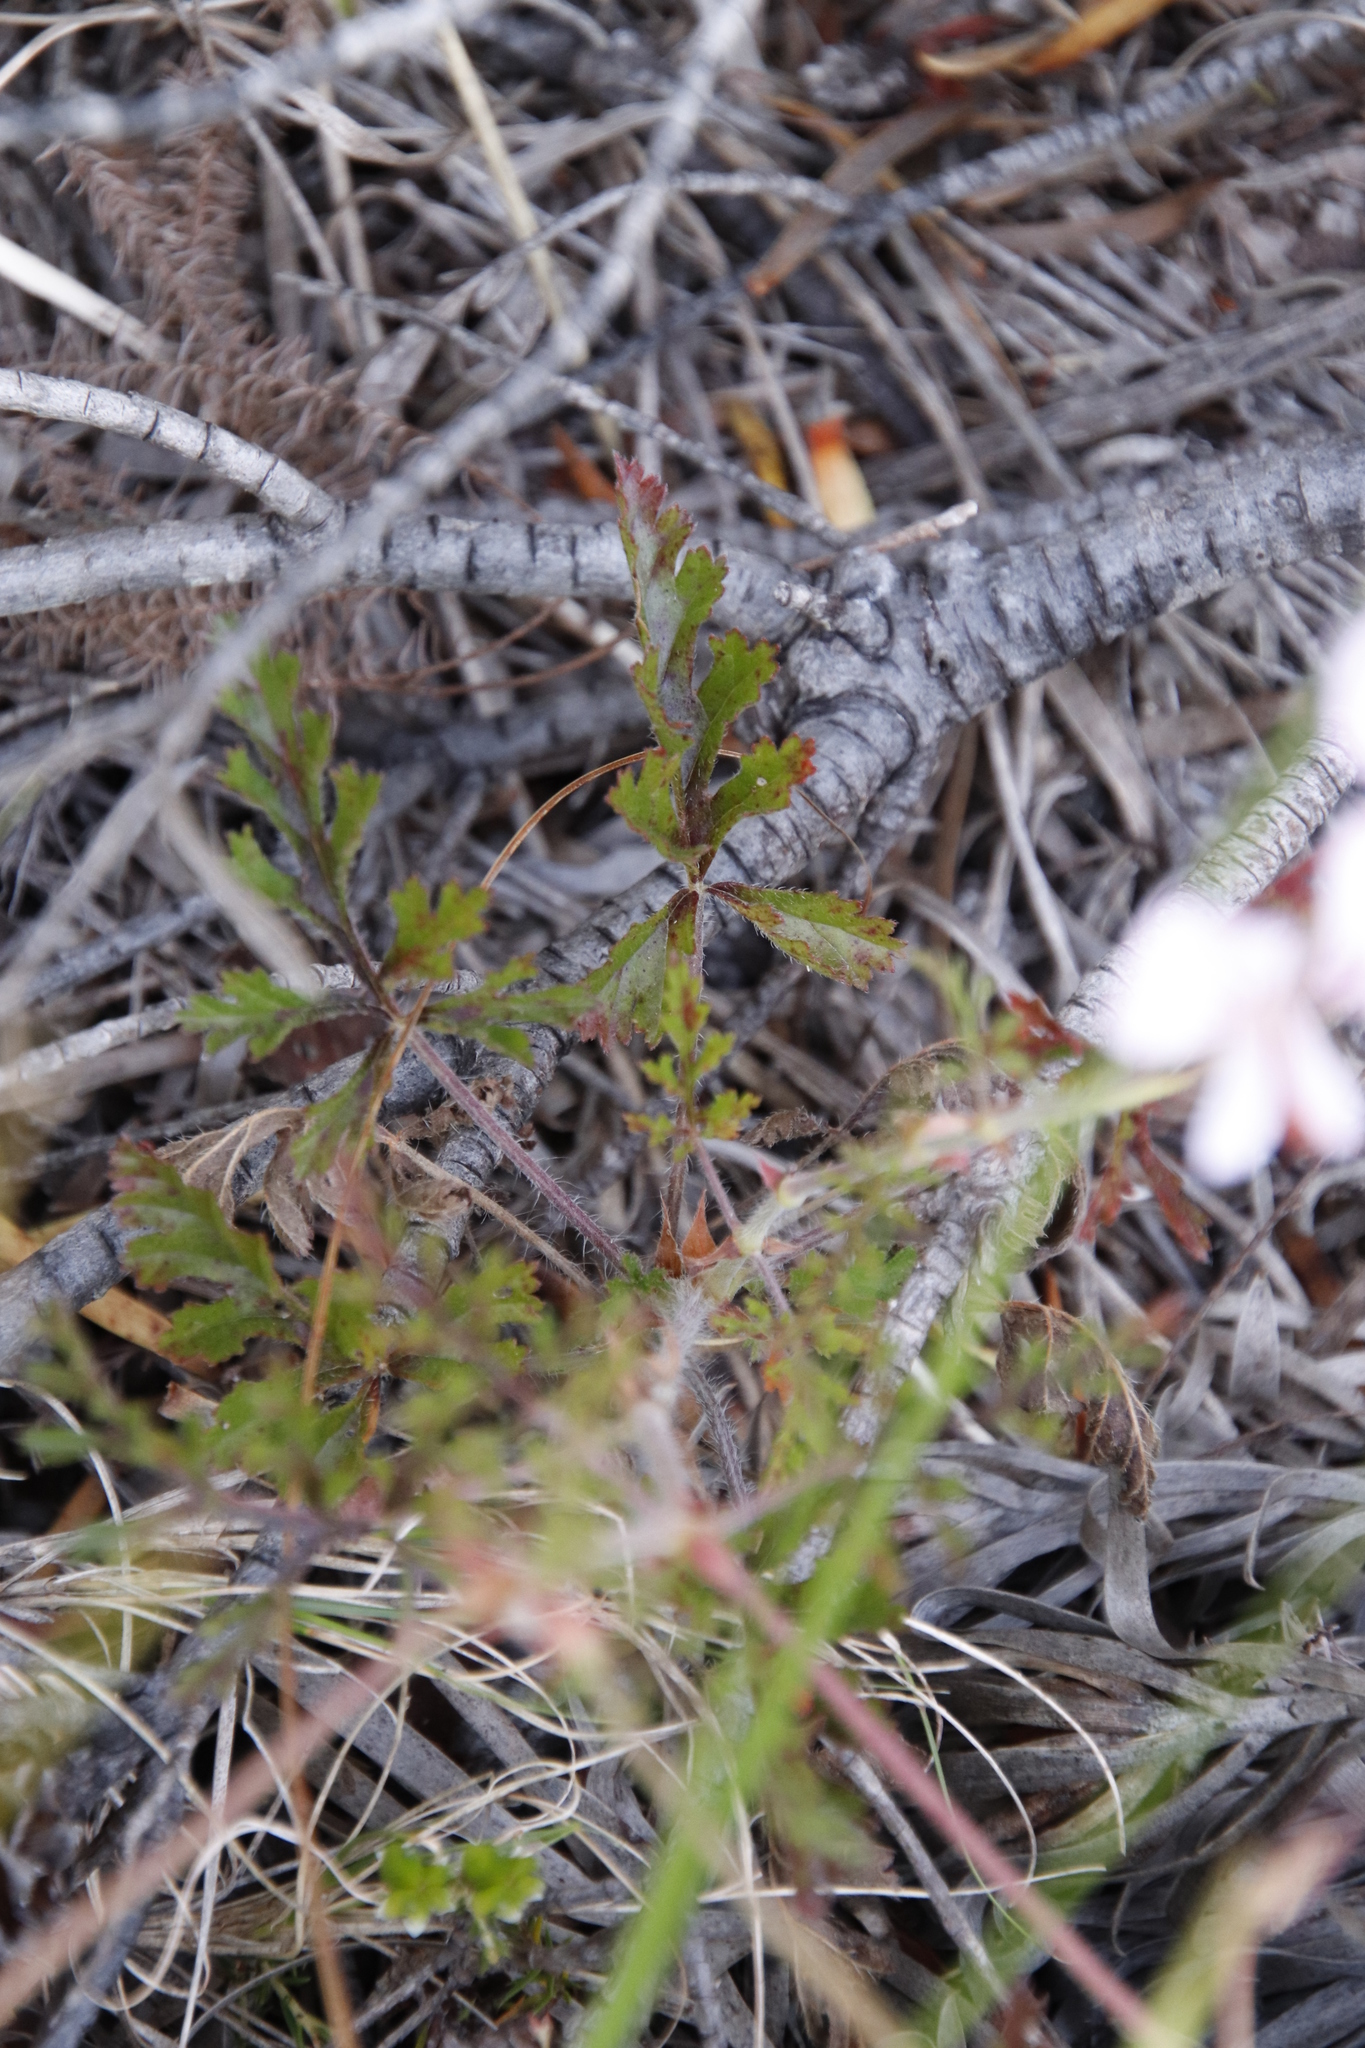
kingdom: Plantae
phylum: Tracheophyta
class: Magnoliopsida
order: Geraniales
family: Geraniaceae
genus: Pelargonium
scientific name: Pelargonium longicaule
